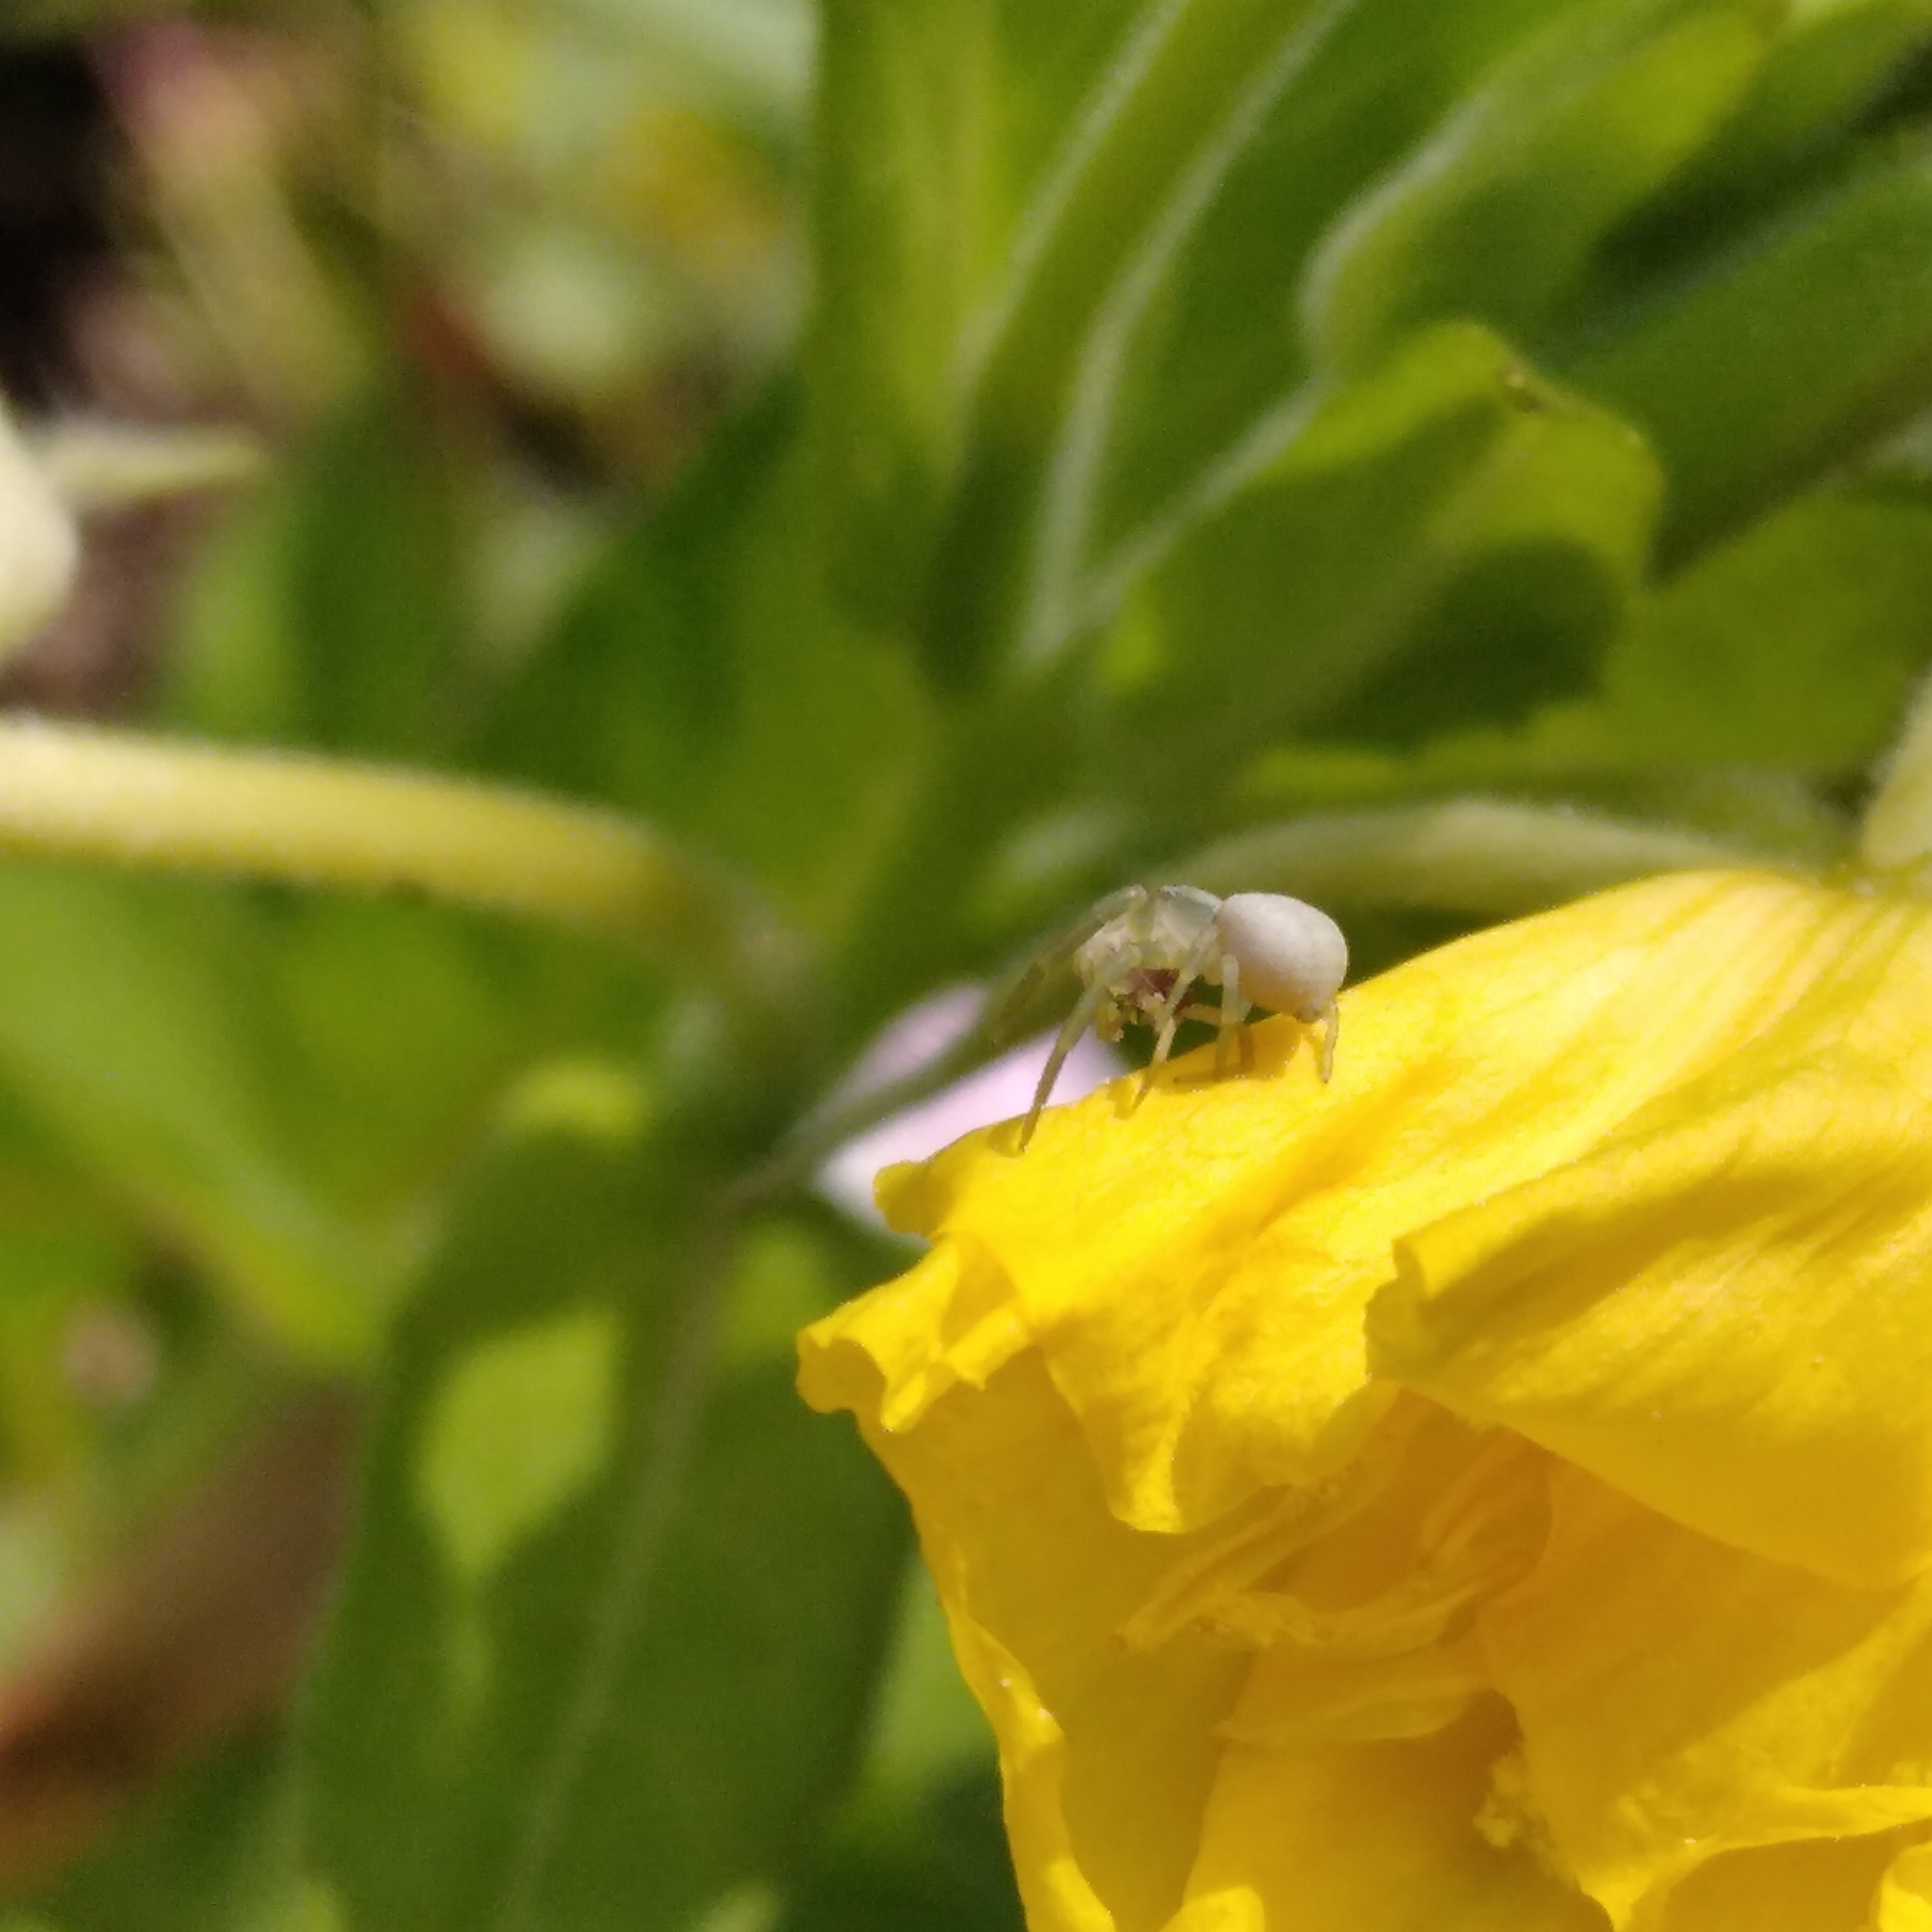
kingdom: Animalia
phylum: Arthropoda
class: Arachnida
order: Araneae
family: Thomisidae
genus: Misumena
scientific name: Misumena vatia
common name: Goldenrod crab spider
